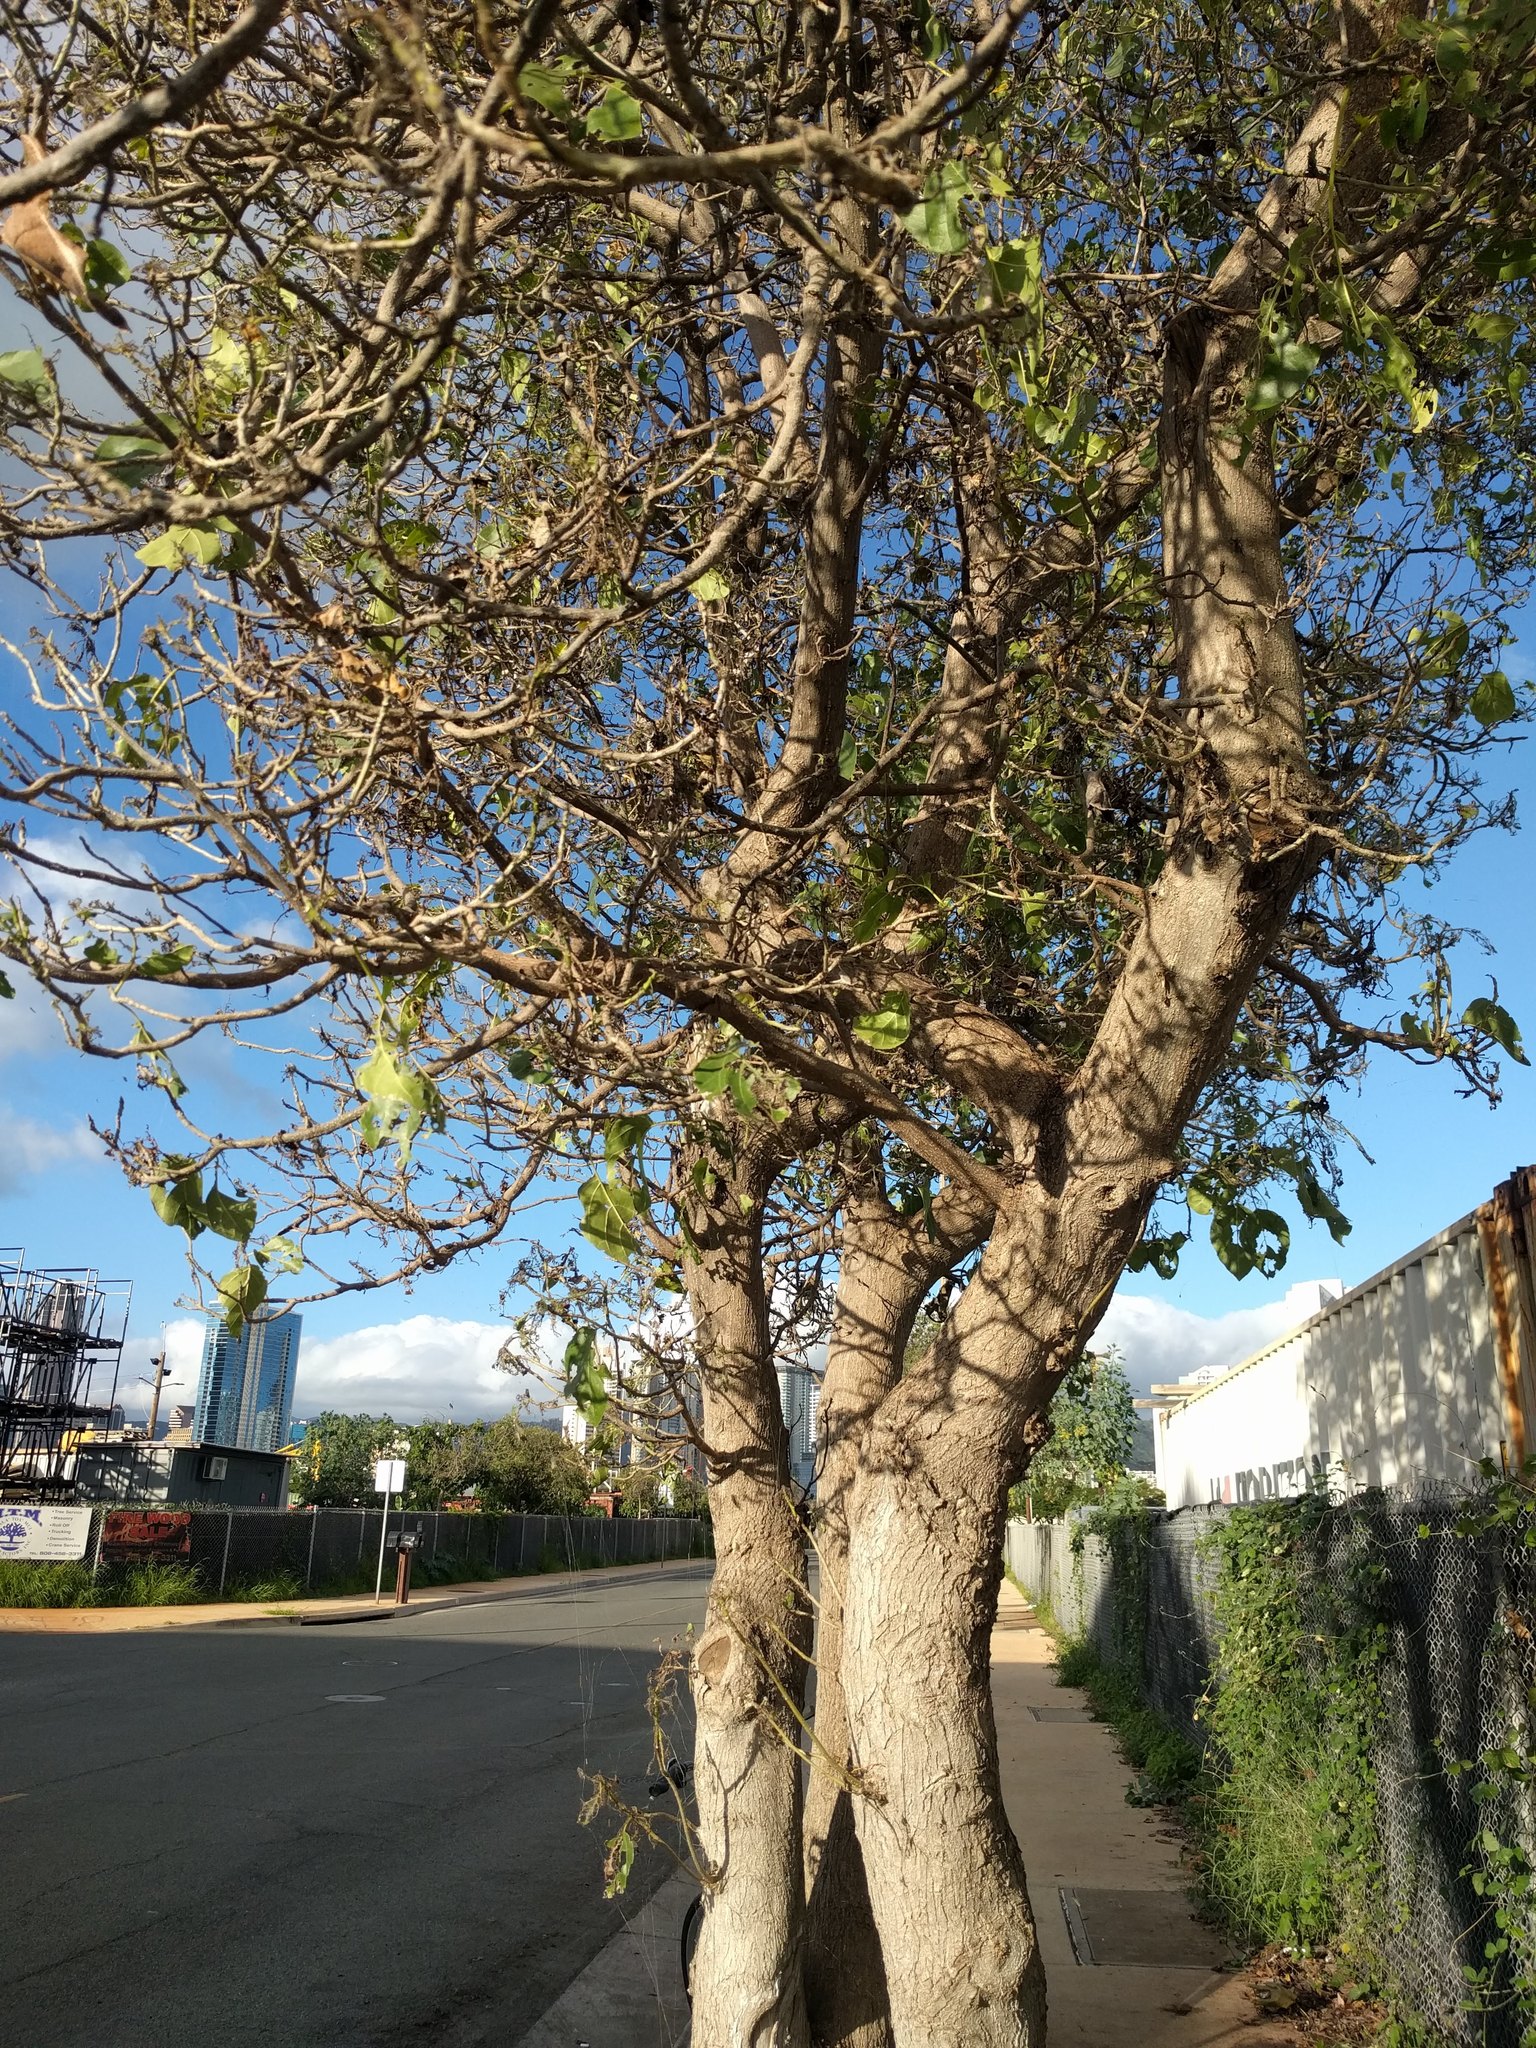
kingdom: Animalia
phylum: Arthropoda
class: Insecta
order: Lepidoptera
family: Ethmiidae
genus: Ethmia
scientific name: Ethmia nigroapicella
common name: Kou leaf worm
